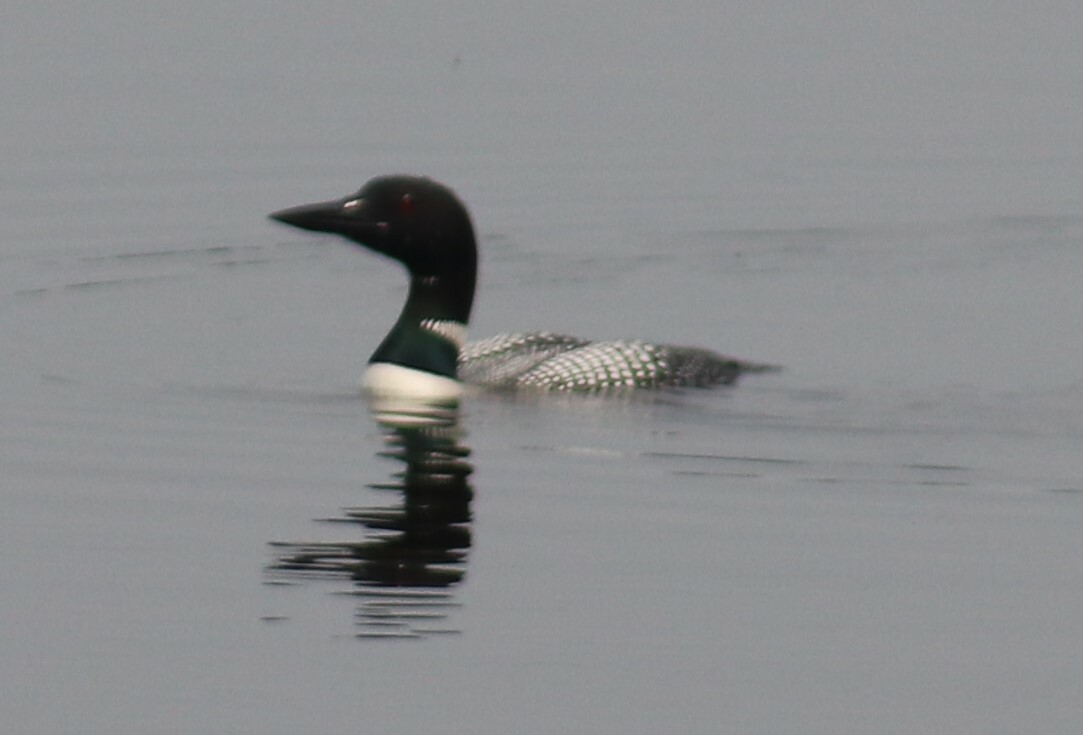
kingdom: Animalia
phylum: Chordata
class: Aves
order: Gaviiformes
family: Gaviidae
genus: Gavia
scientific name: Gavia immer
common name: Common loon
